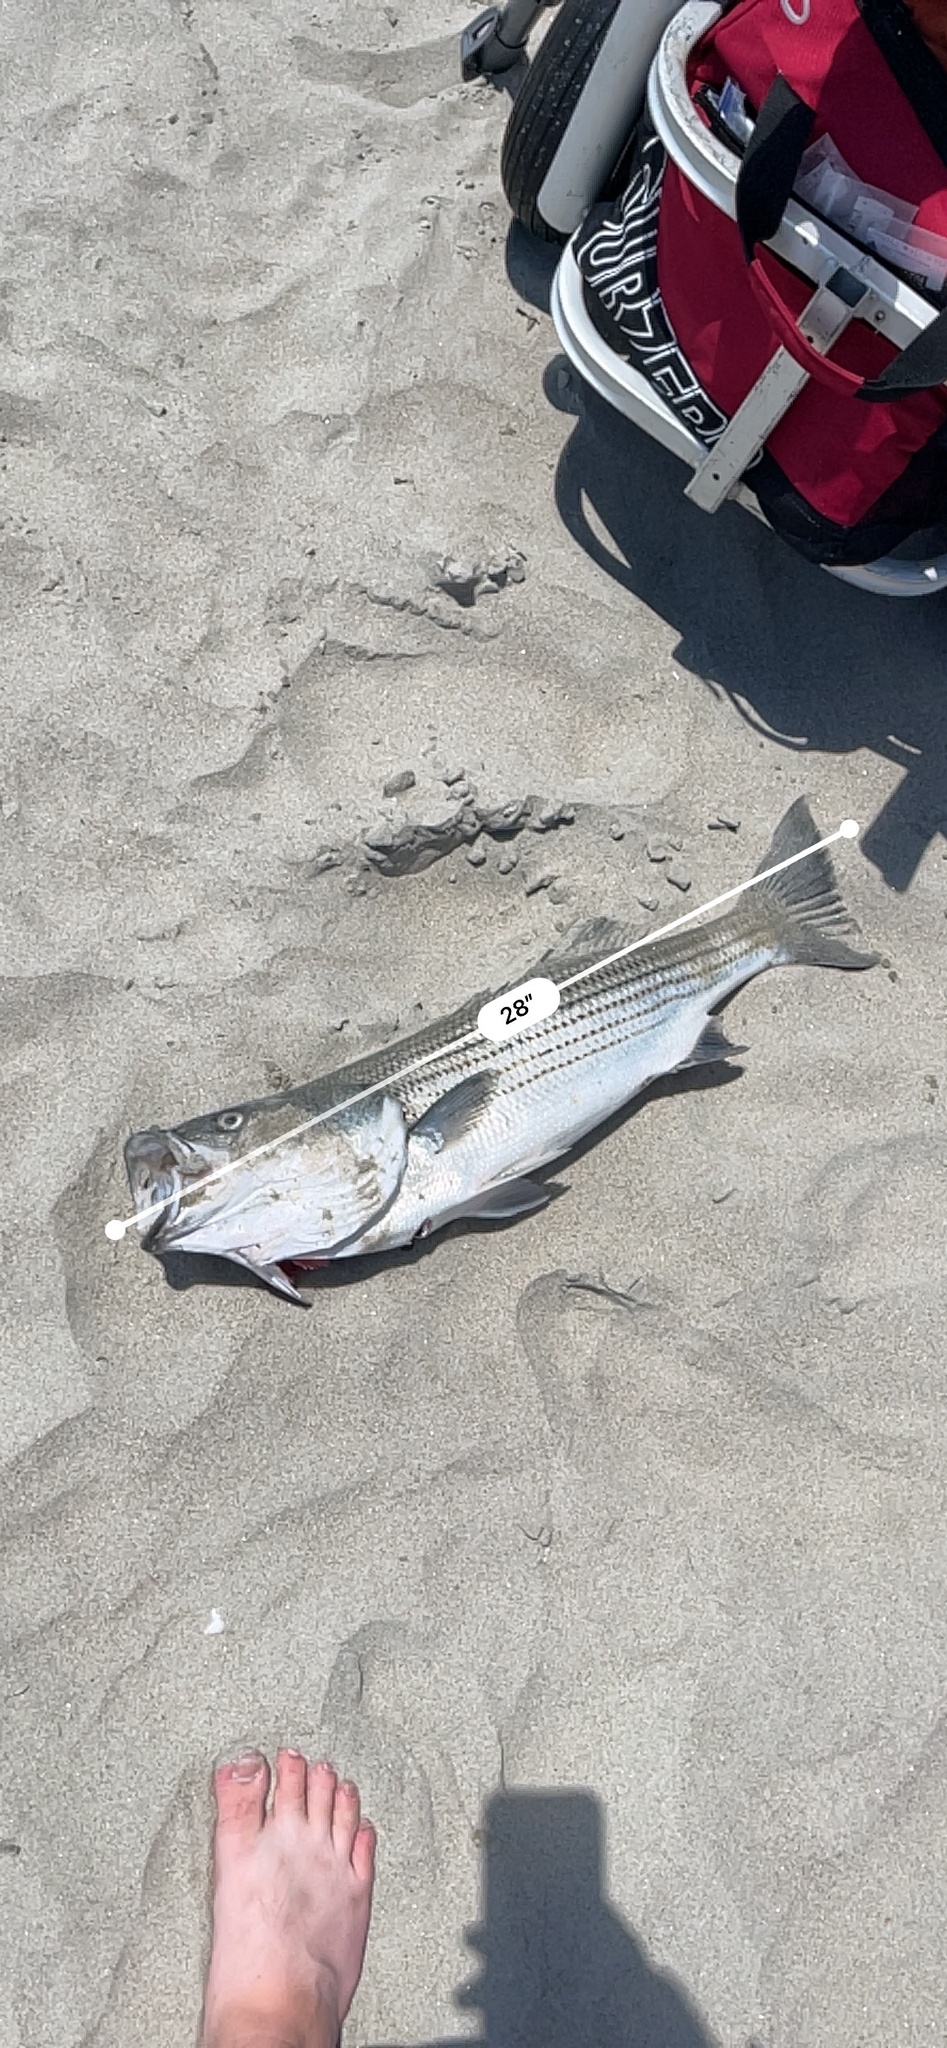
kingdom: Animalia
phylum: Chordata
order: Perciformes
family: Moronidae
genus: Morone
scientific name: Morone saxatilis
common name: Striped bass
